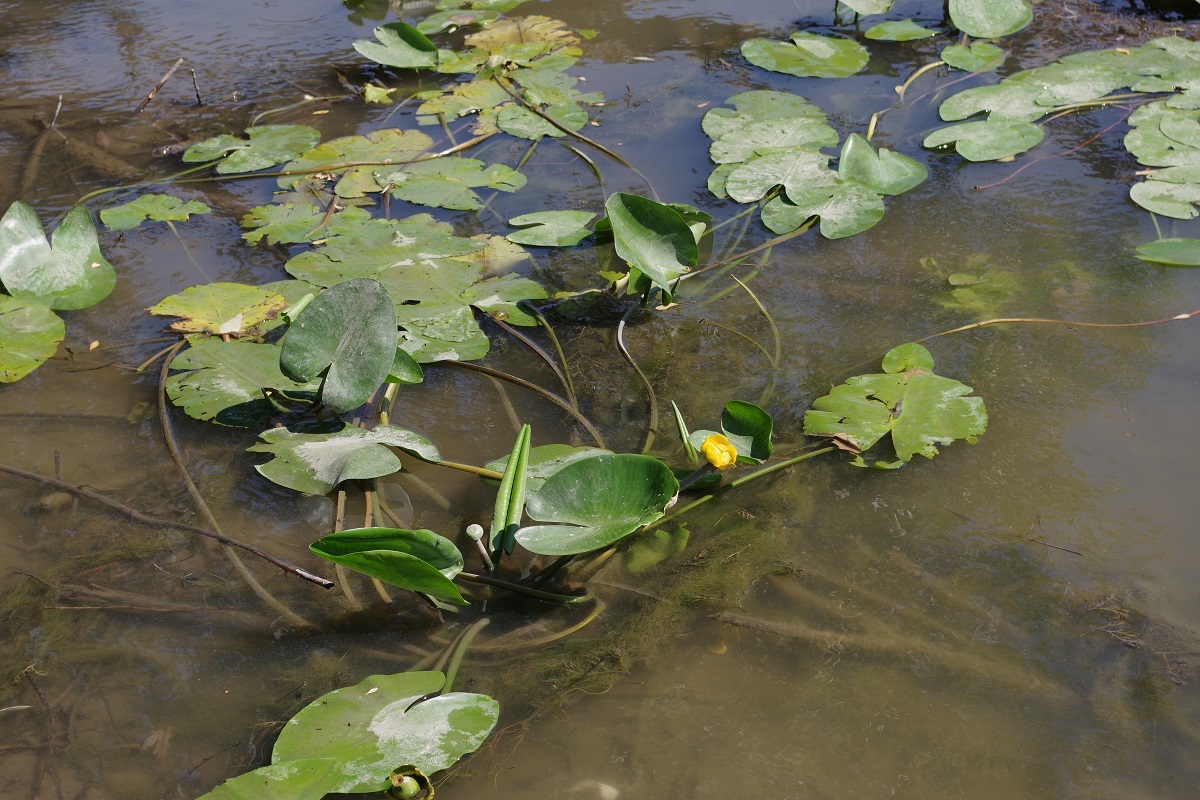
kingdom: Plantae
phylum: Tracheophyta
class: Magnoliopsida
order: Nymphaeales
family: Nymphaeaceae
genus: Nuphar
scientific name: Nuphar lutea
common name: Yellow water-lily
